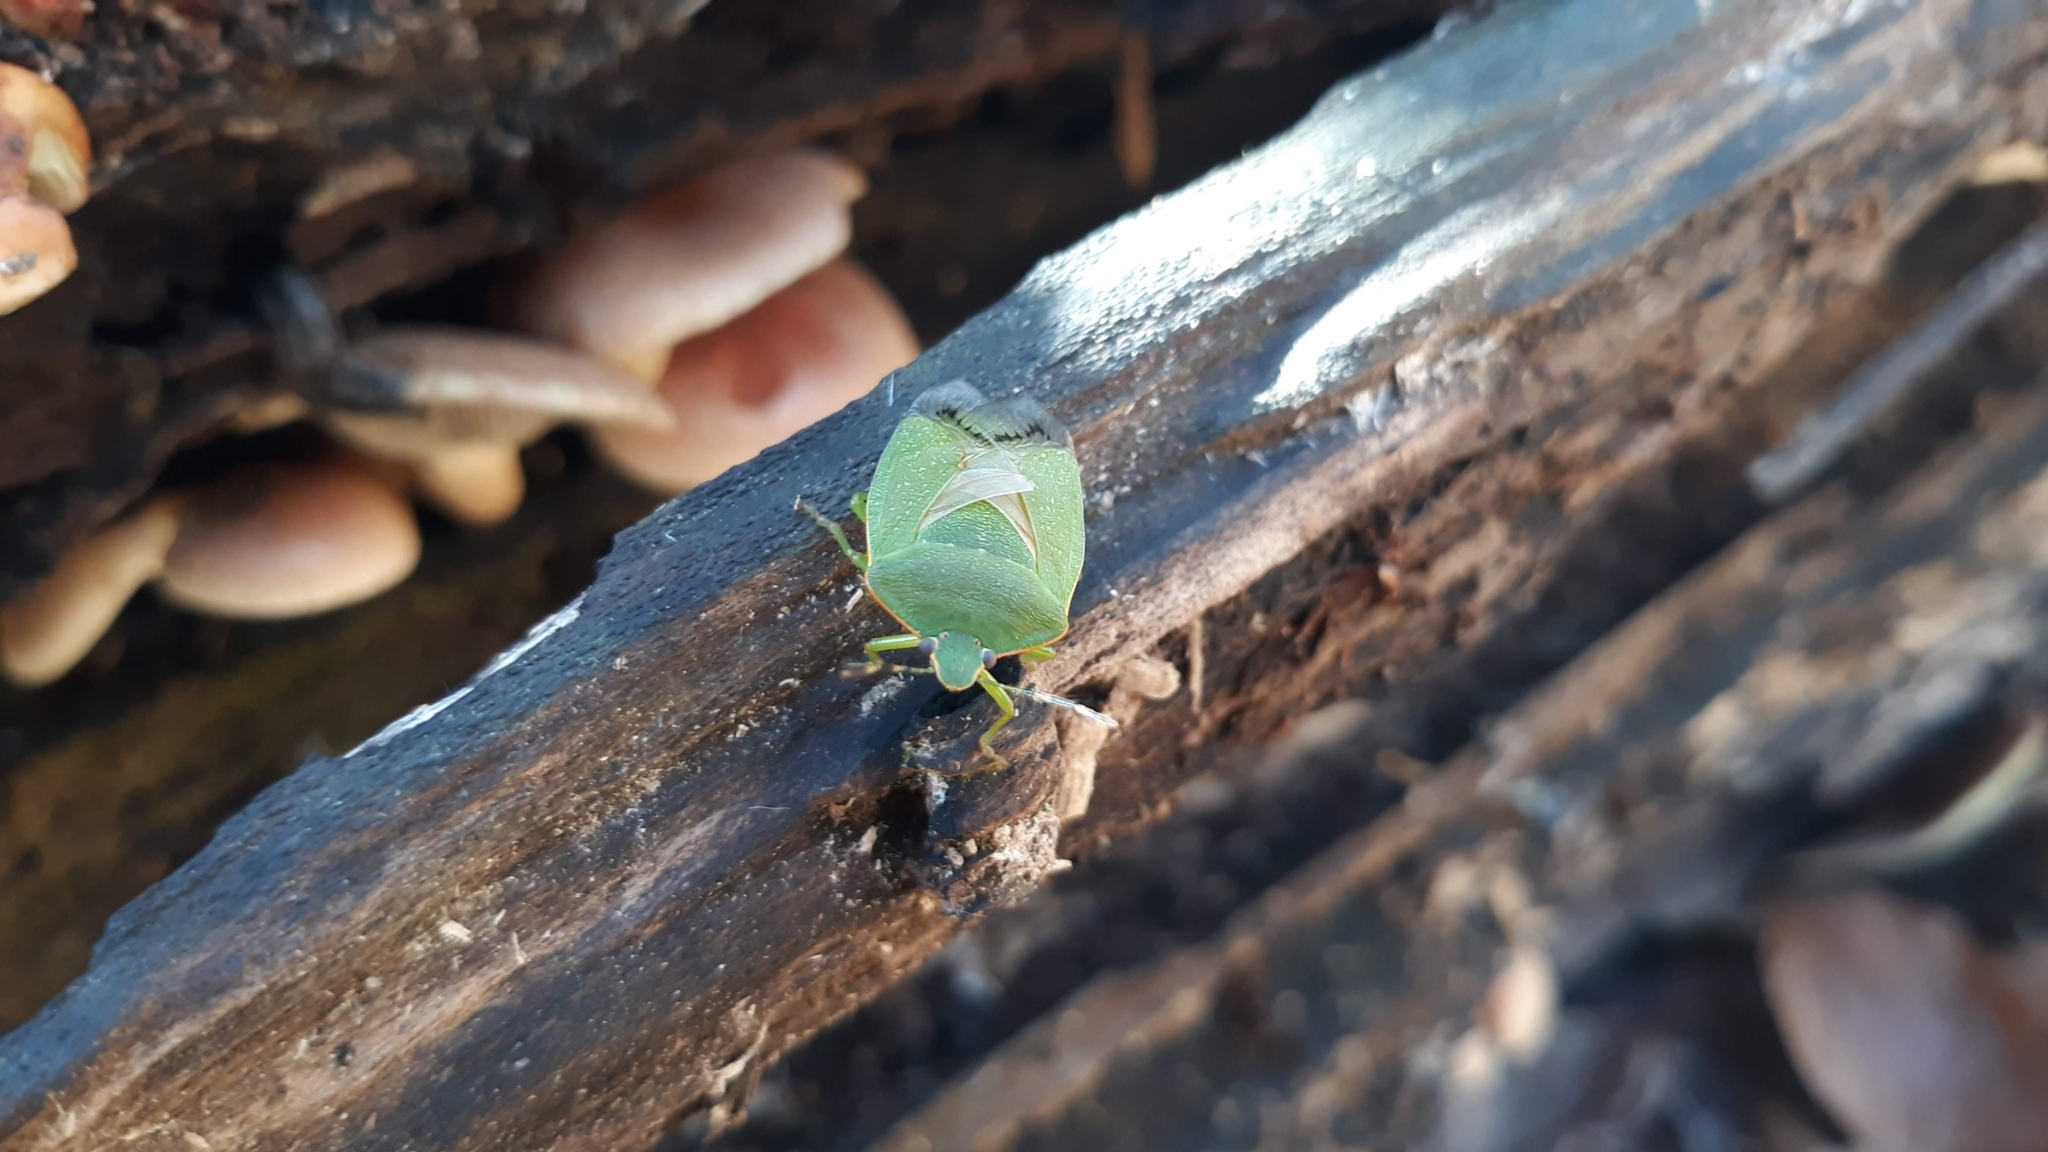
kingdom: Animalia
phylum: Arthropoda
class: Insecta
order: Hemiptera
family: Pentatomidae
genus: Chinavia
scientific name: Chinavia hilaris
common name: Green stink bug
